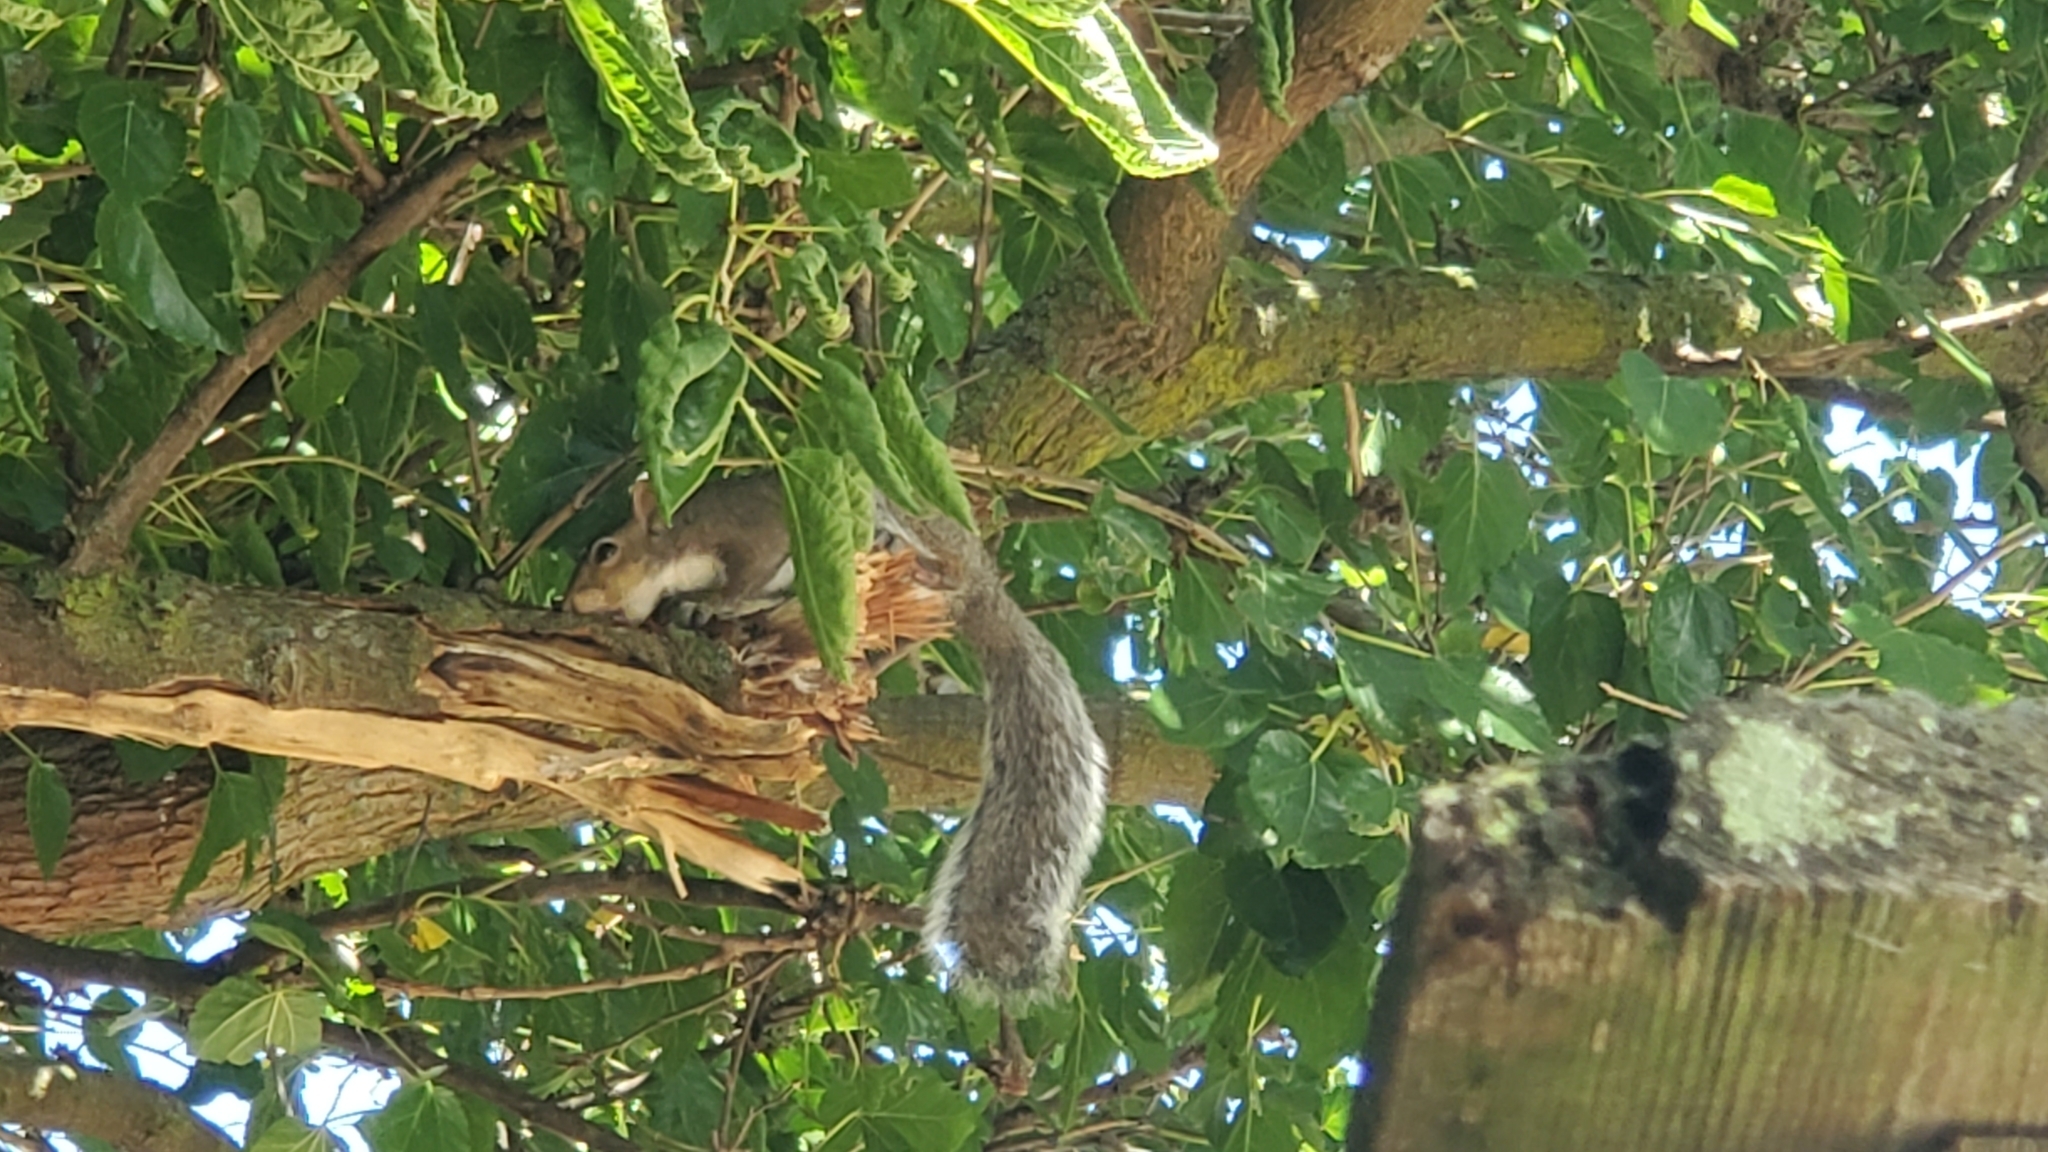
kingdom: Animalia
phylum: Chordata
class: Mammalia
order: Rodentia
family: Sciuridae
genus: Sciurus
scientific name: Sciurus carolinensis
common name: Eastern gray squirrel
